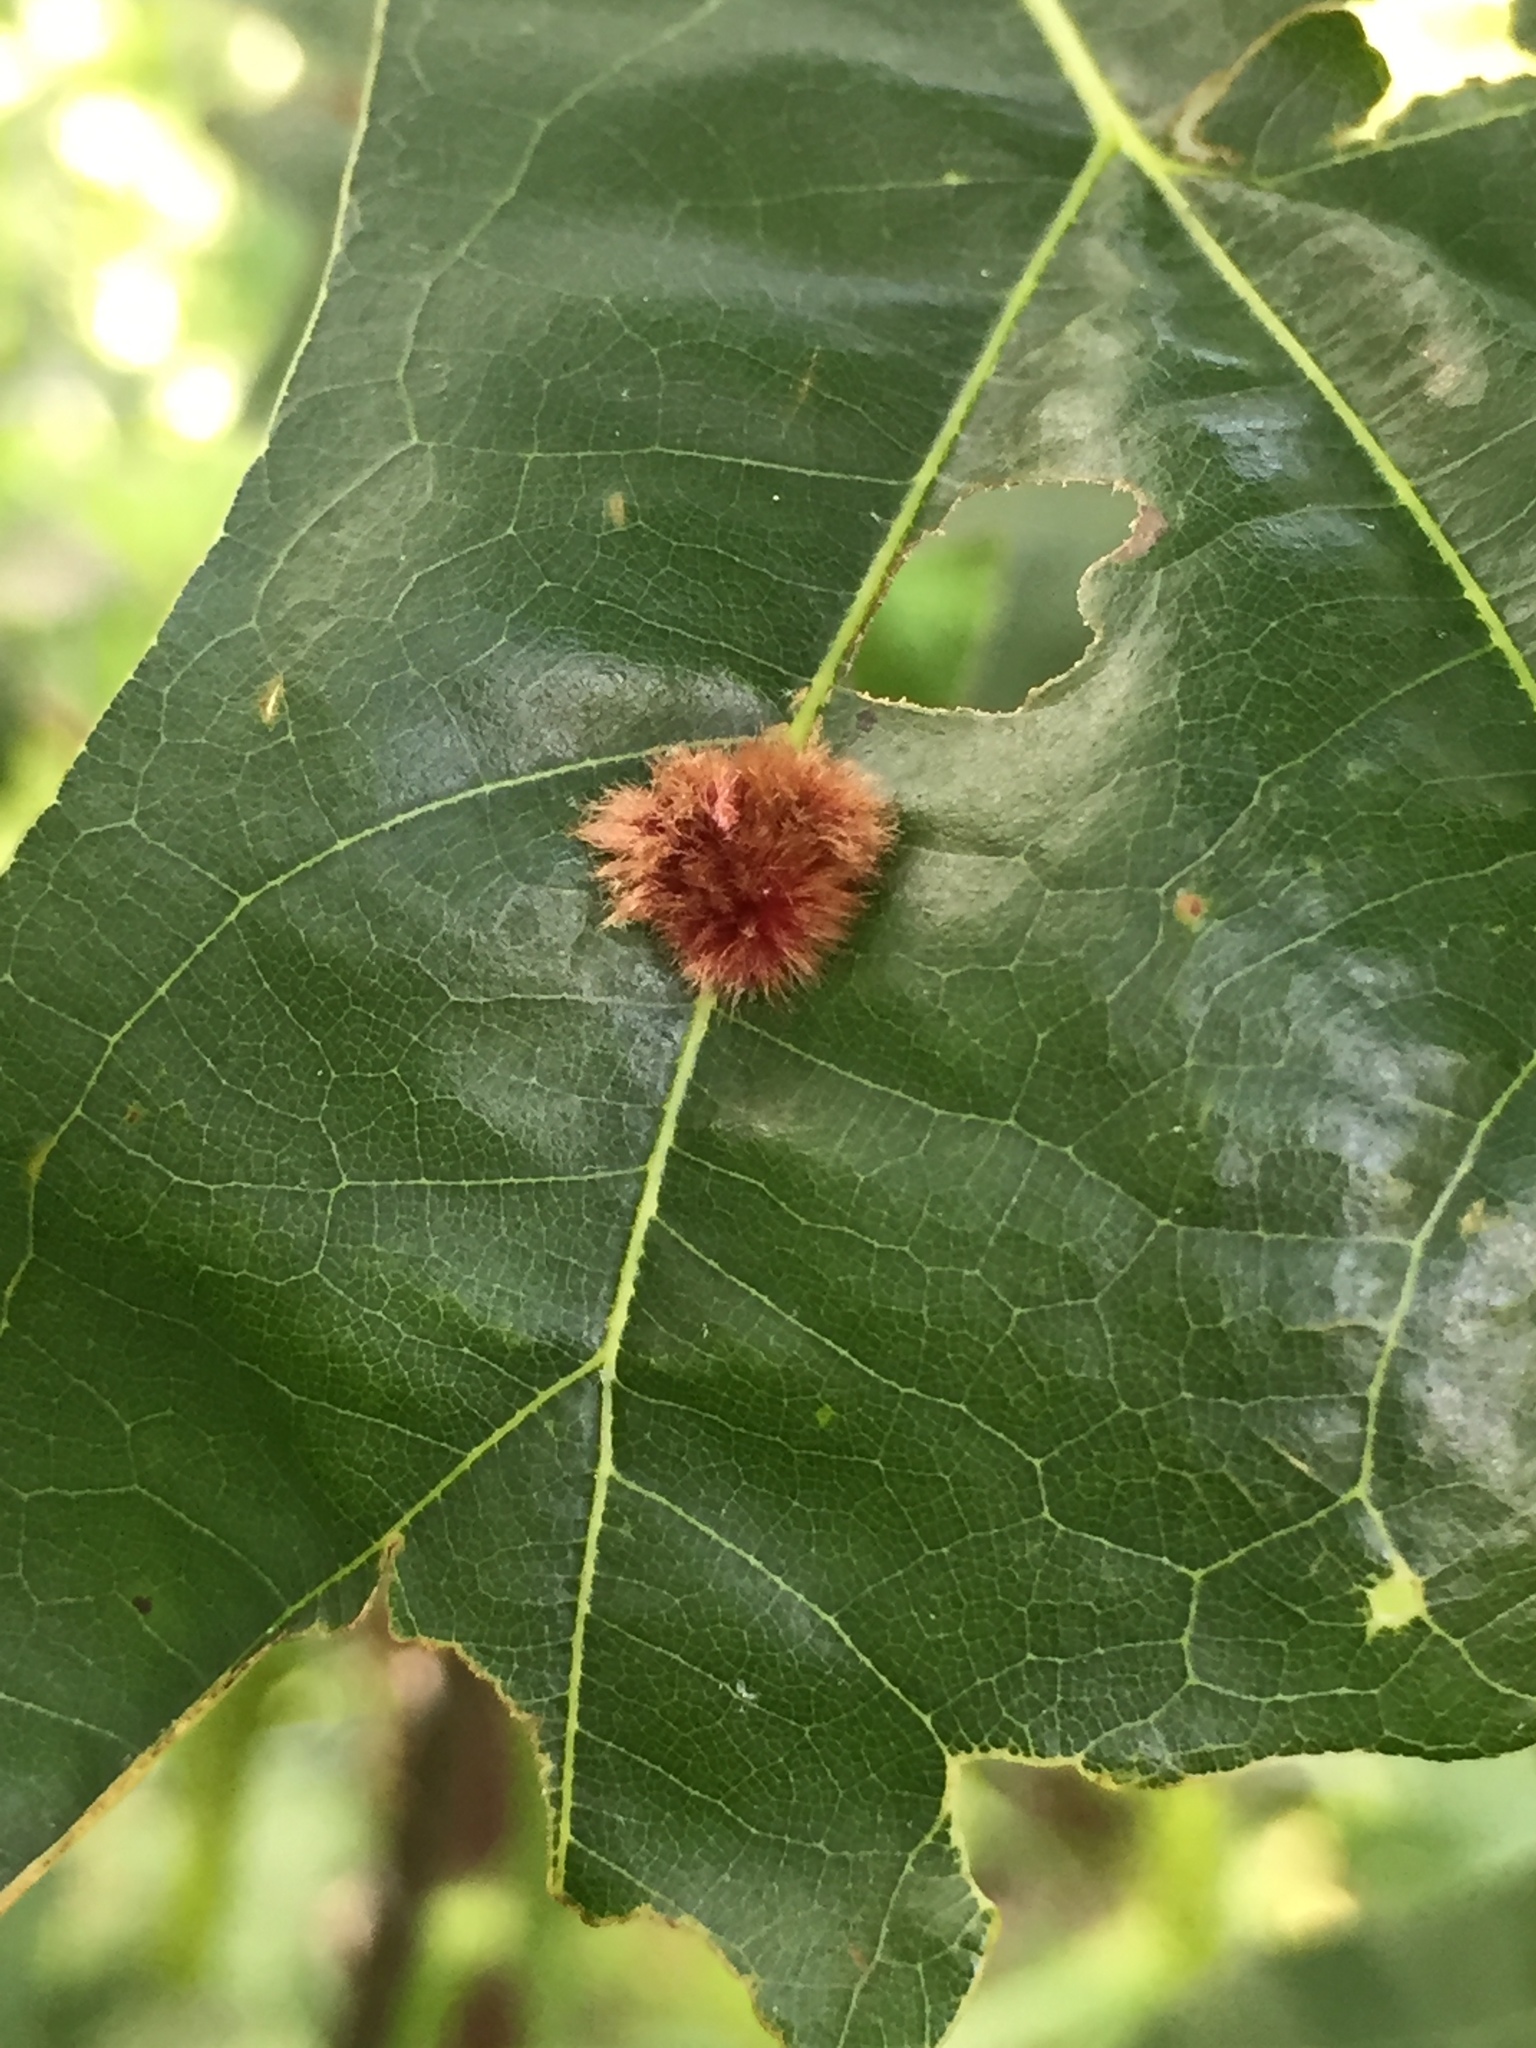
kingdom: Animalia
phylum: Arthropoda
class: Insecta
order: Hymenoptera
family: Cynipidae
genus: Callirhytis
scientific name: Callirhytis
